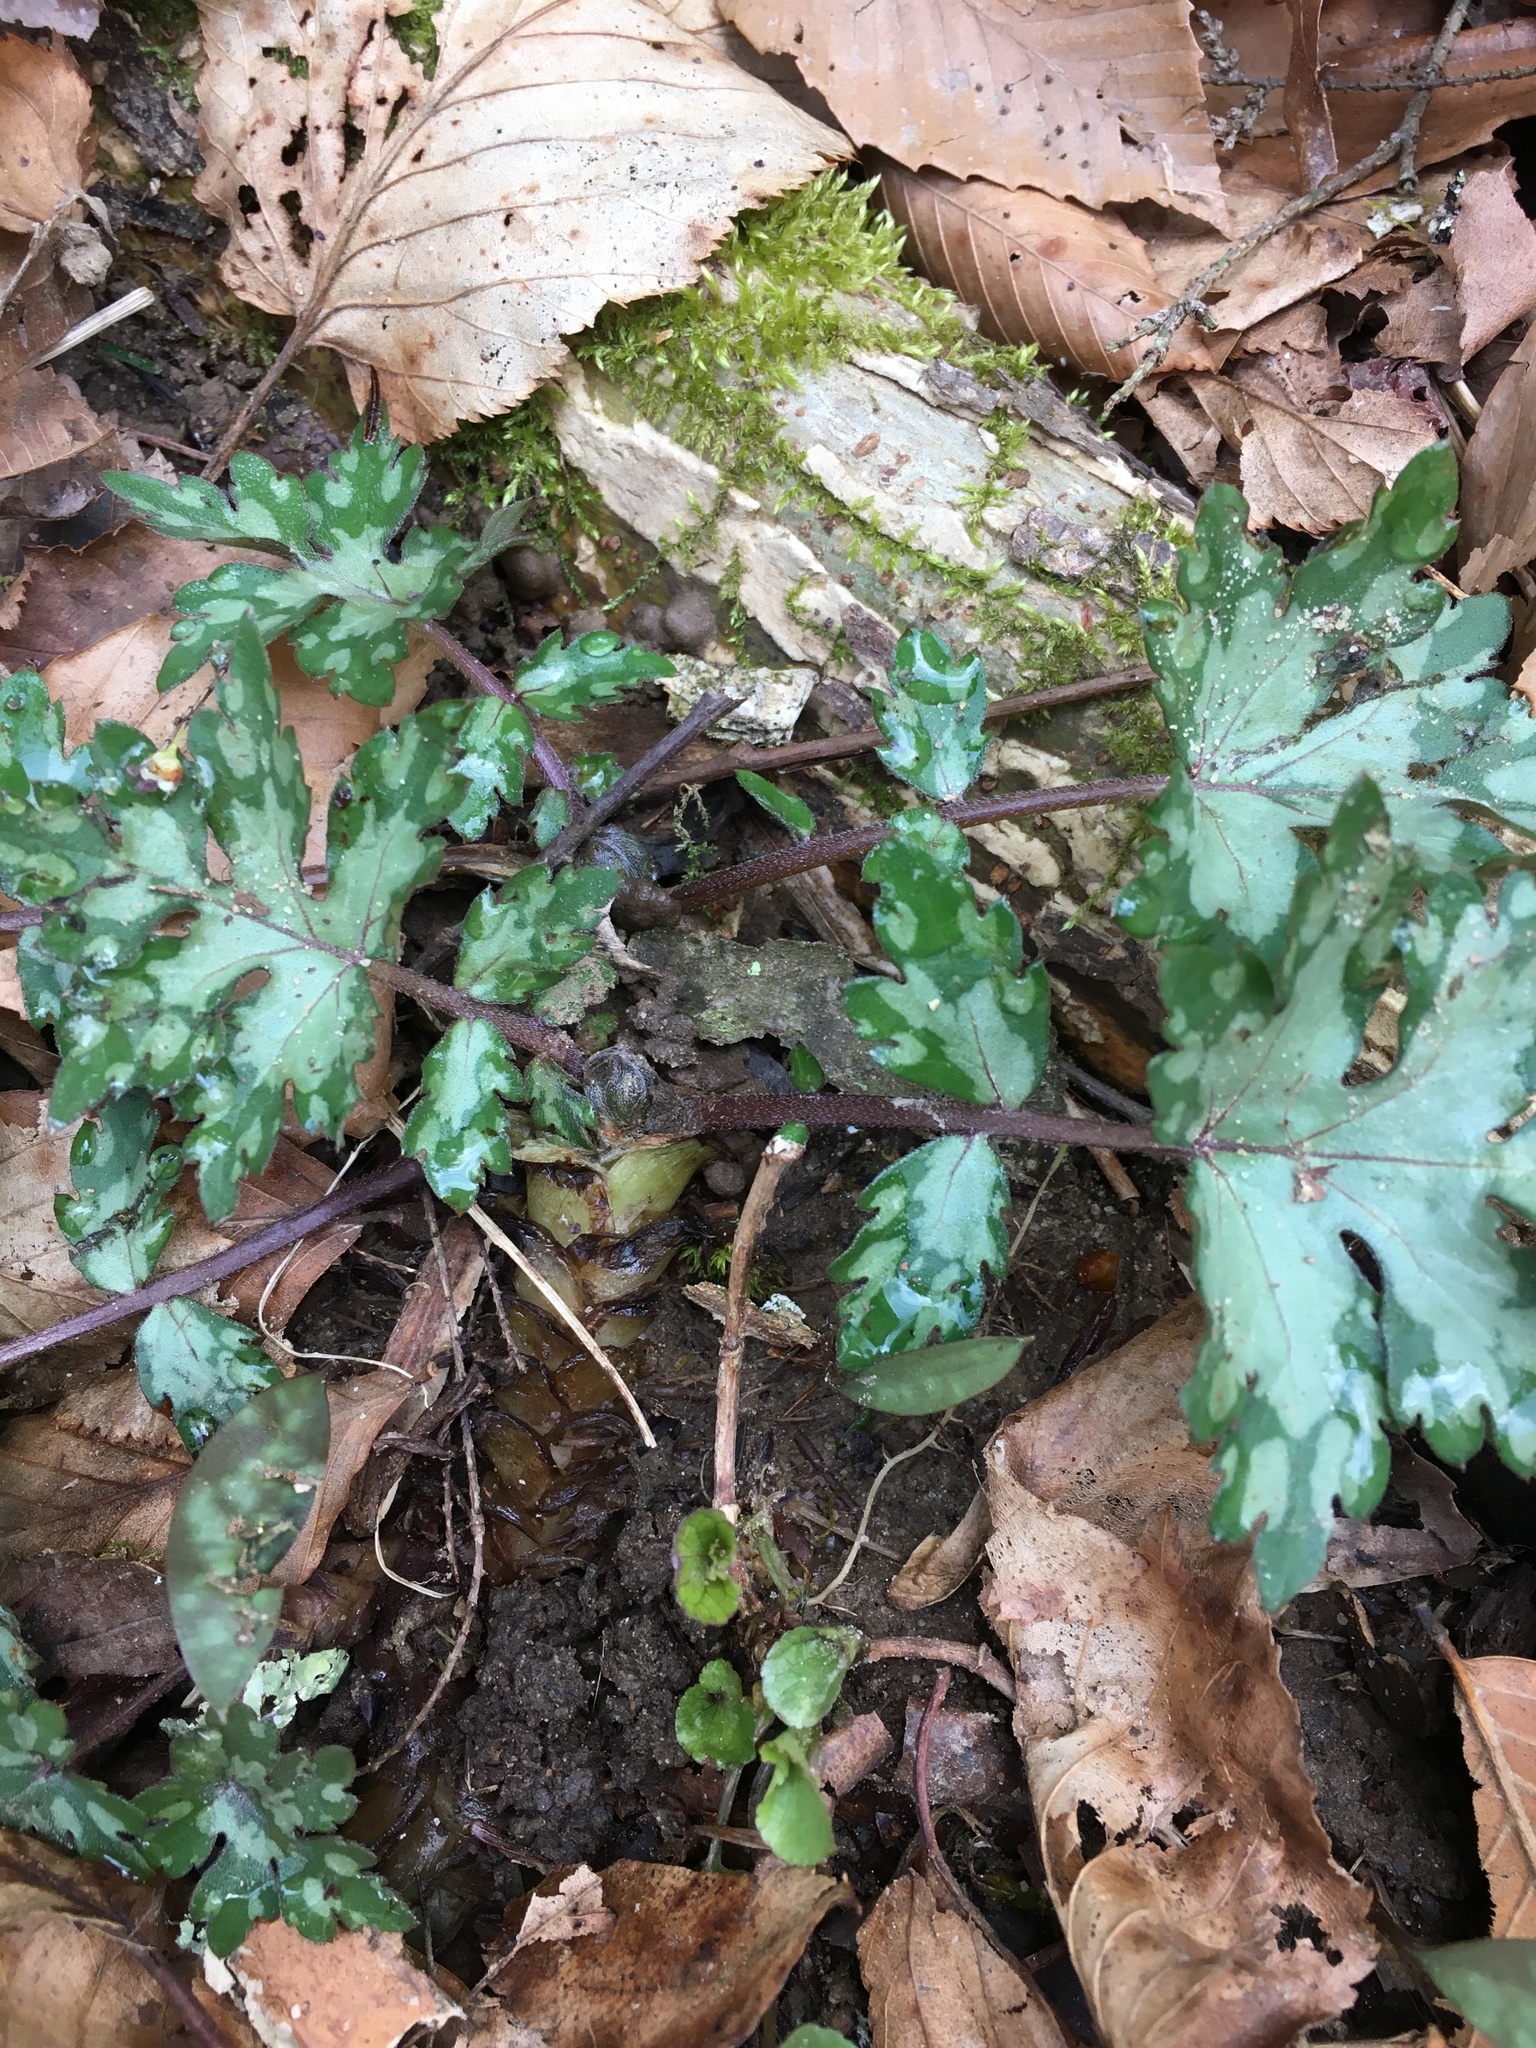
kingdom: Plantae
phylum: Tracheophyta
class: Magnoliopsida
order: Boraginales
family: Hydrophyllaceae
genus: Hydrophyllum
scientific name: Hydrophyllum appendiculatum
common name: Appendaged waterleaf
